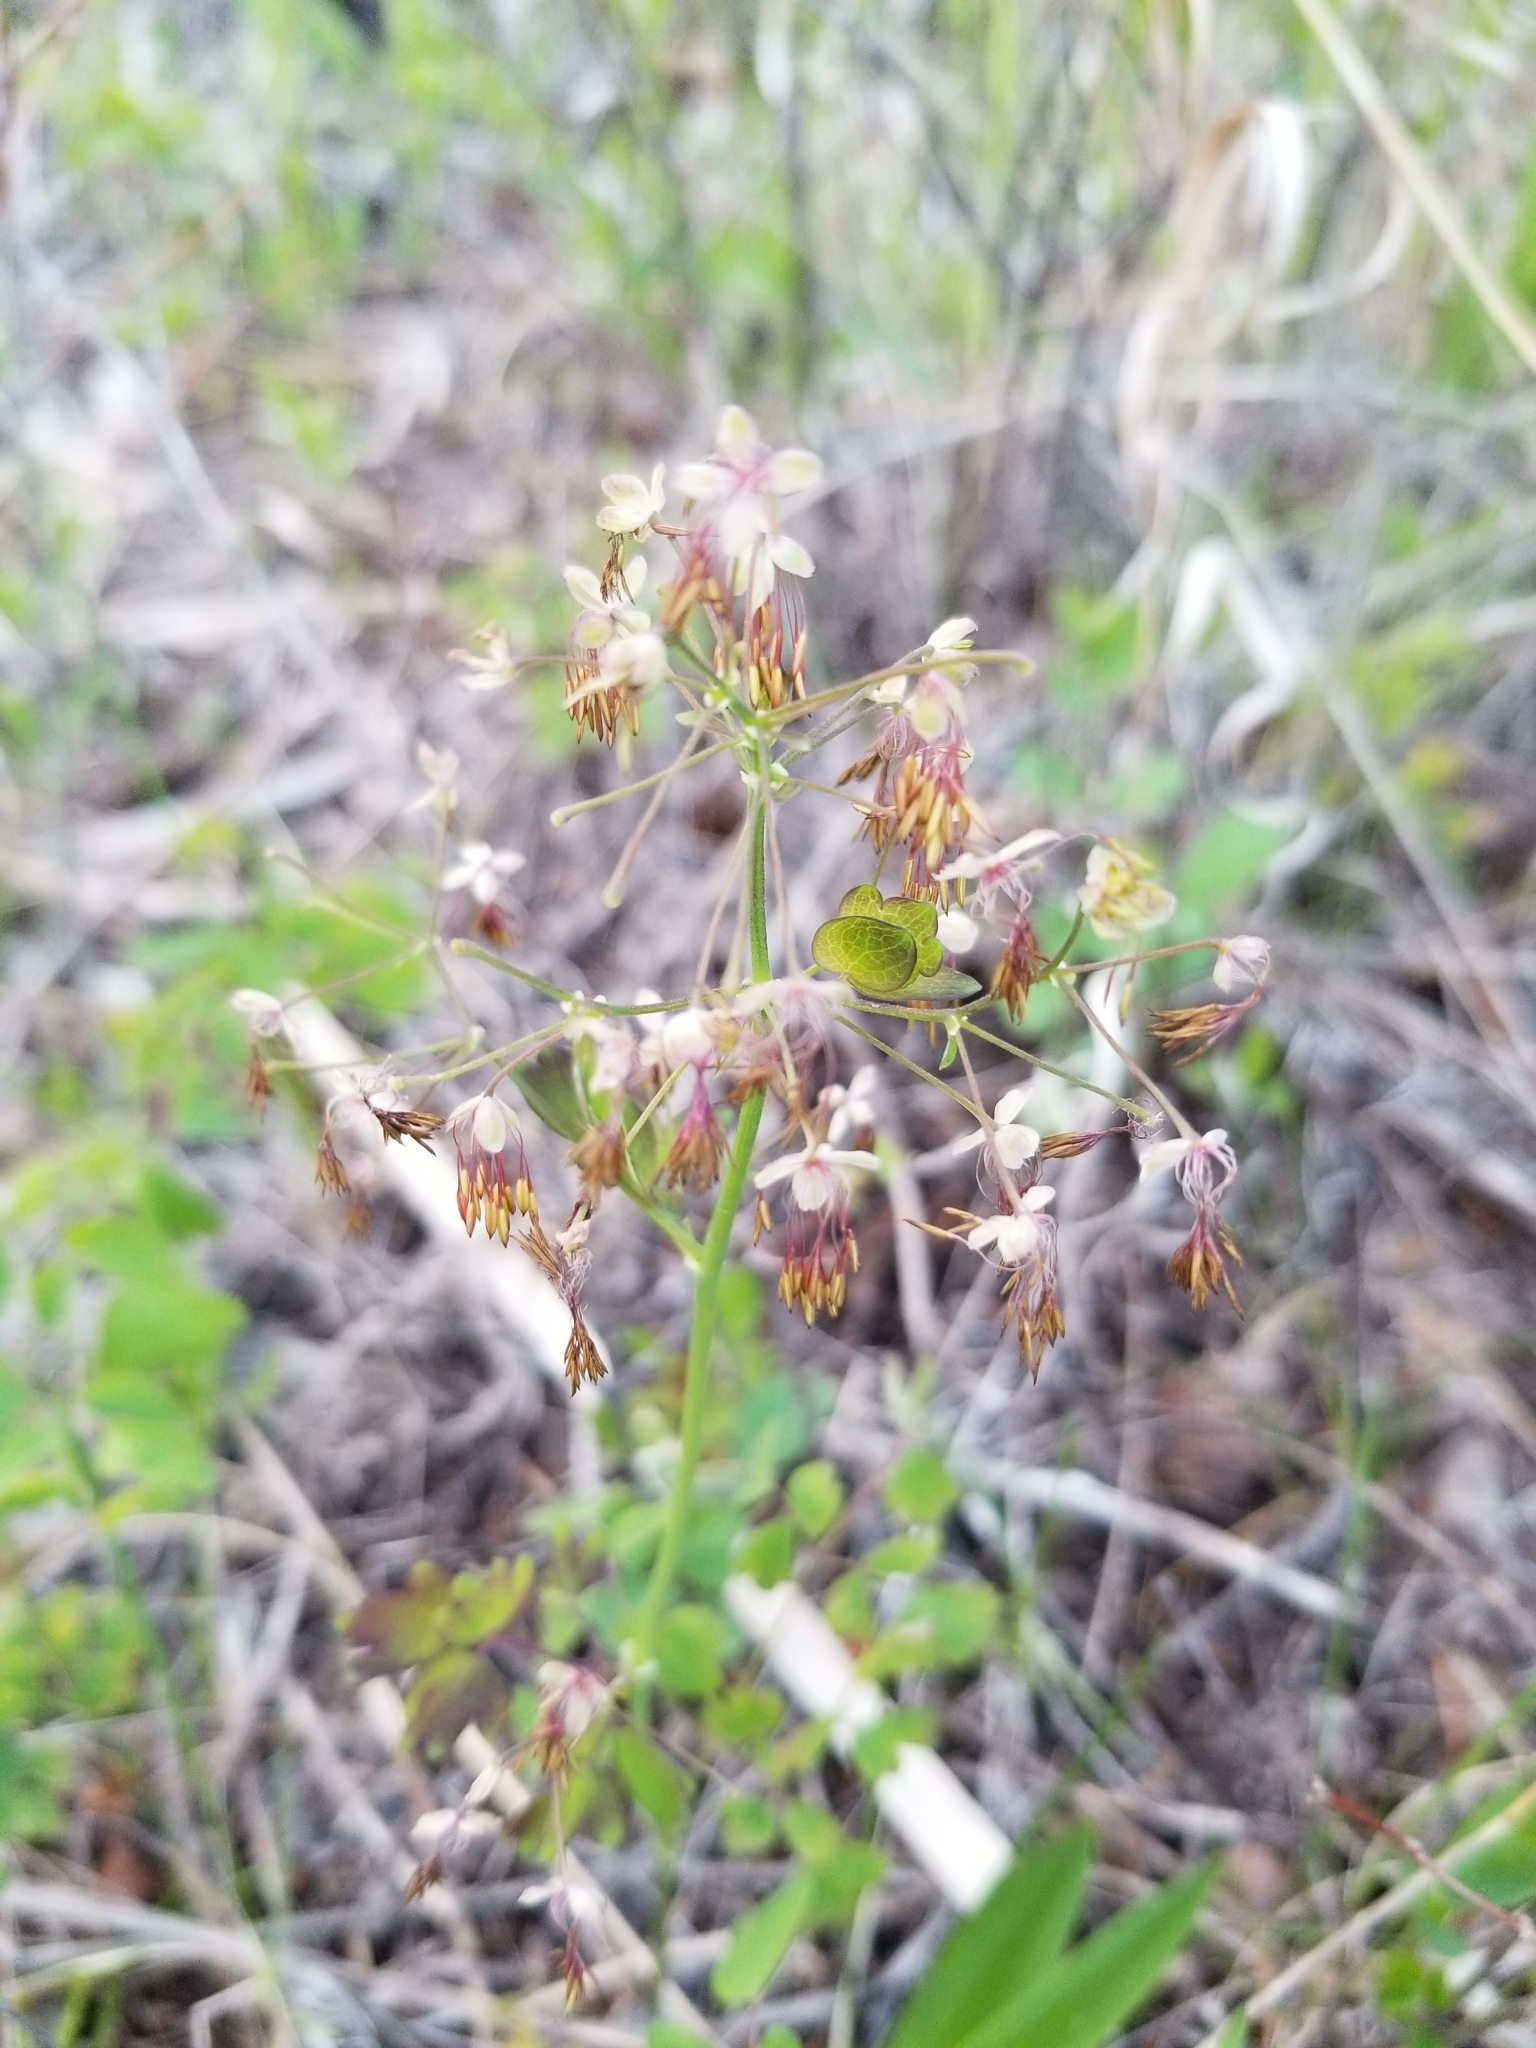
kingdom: Plantae
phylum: Tracheophyta
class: Magnoliopsida
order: Ranunculales
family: Ranunculaceae
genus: Thalictrum
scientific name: Thalictrum occidentale
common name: Western meadow-rue
